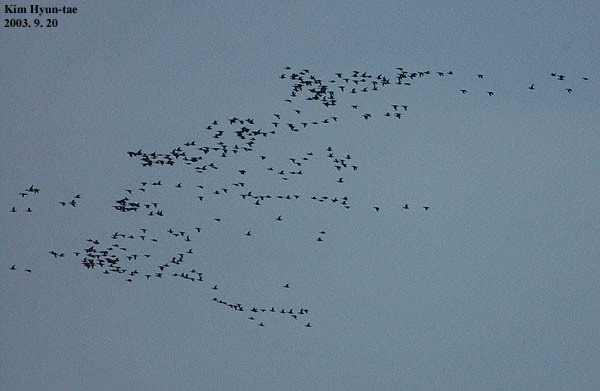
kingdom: Animalia
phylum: Chordata
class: Aves
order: Anseriformes
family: Anatidae
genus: Sibirionetta
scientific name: Sibirionetta formosa
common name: Baikal teal
